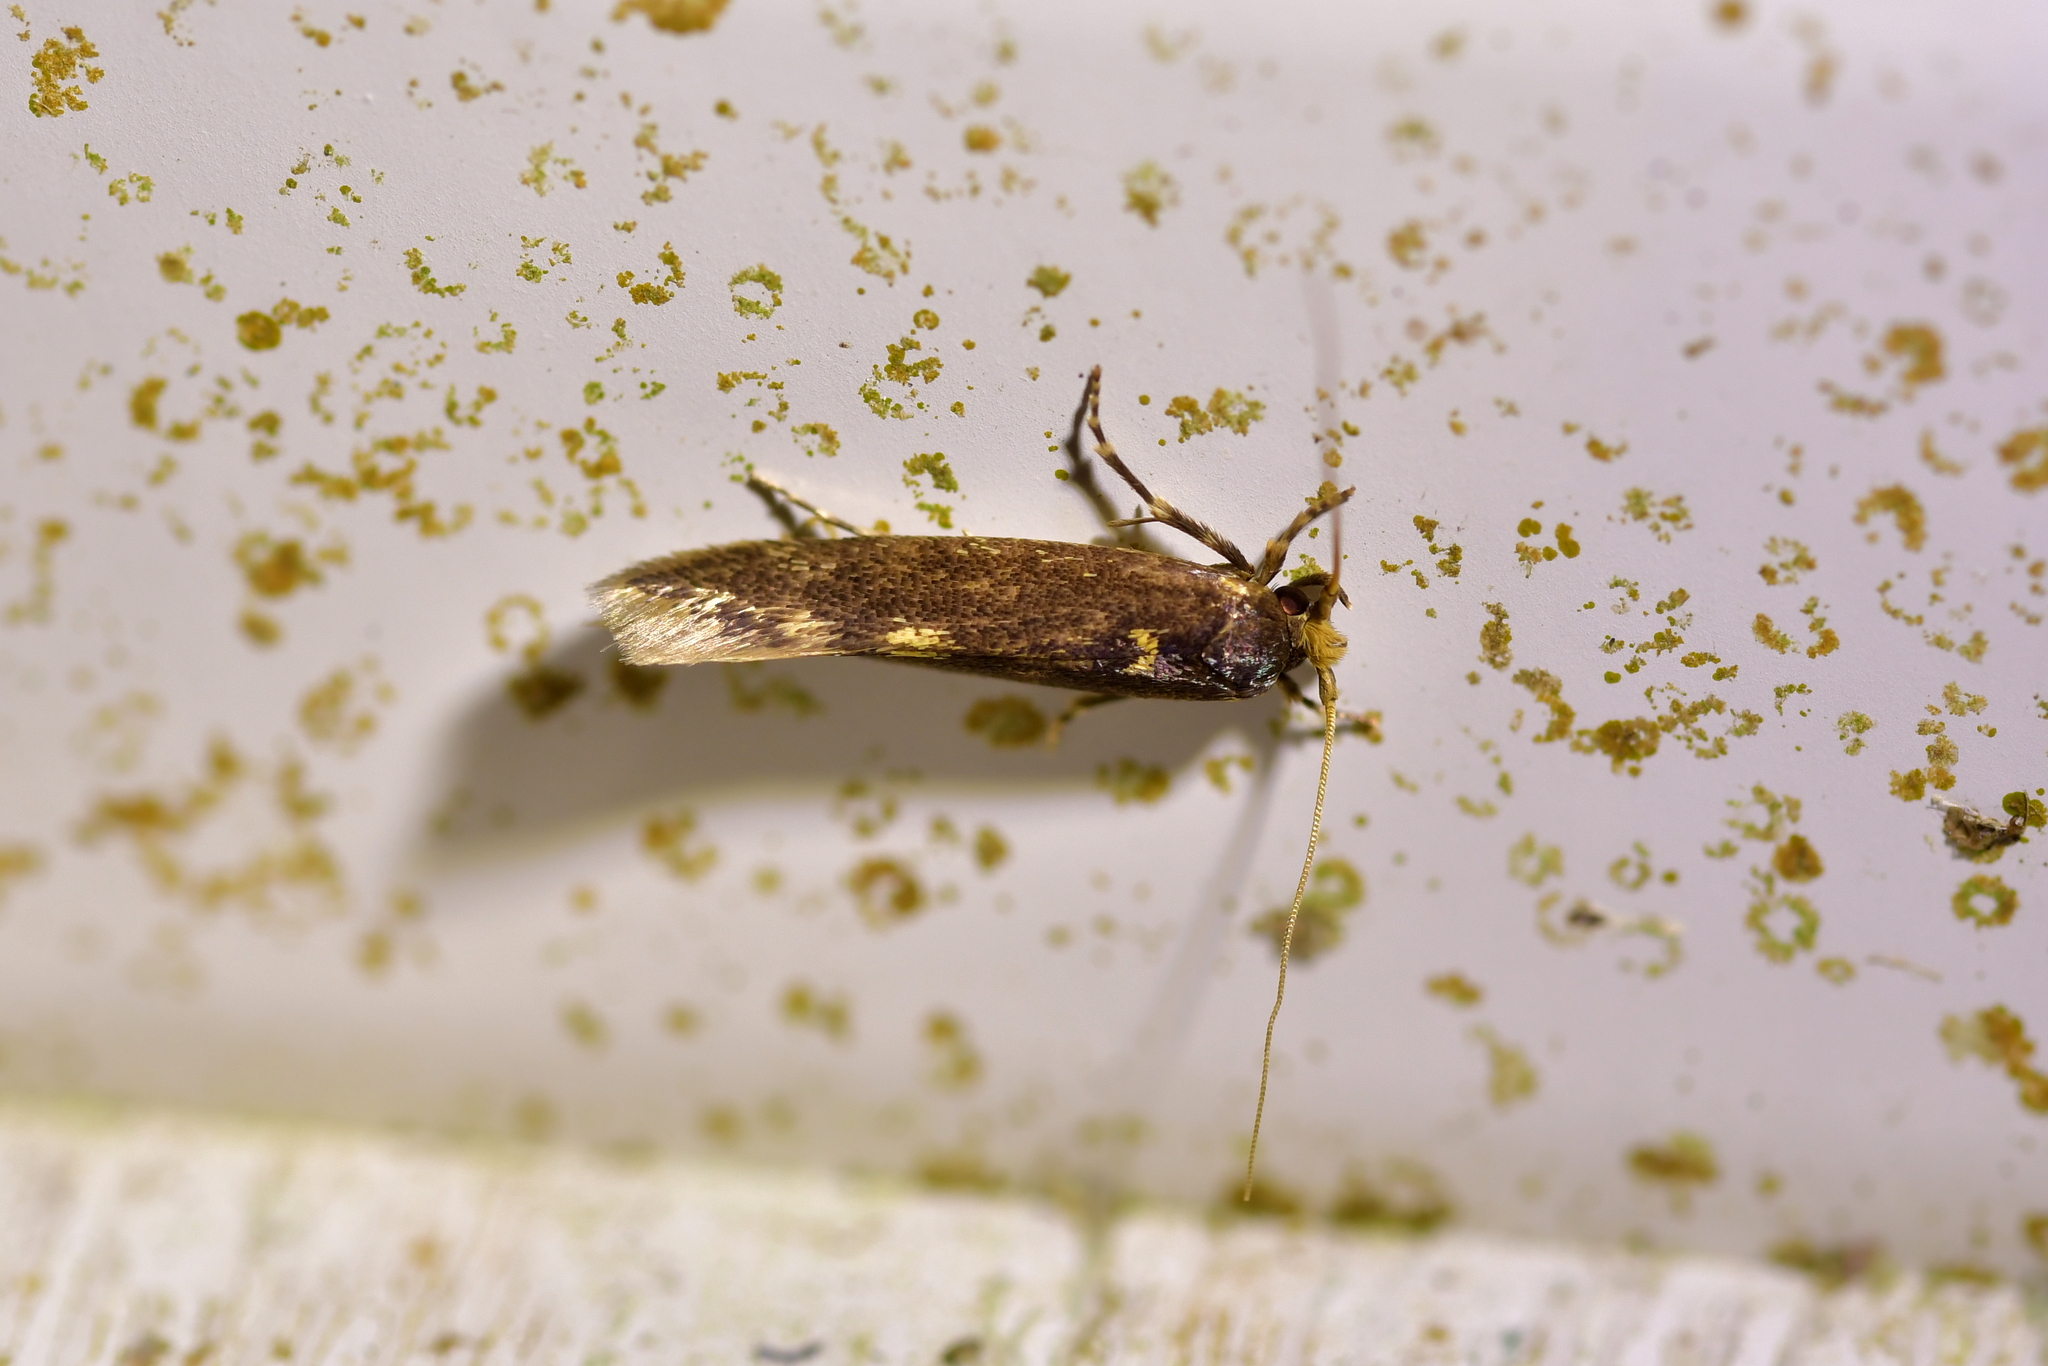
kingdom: Animalia
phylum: Arthropoda
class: Insecta
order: Lepidoptera
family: Tineidae
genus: Opogona
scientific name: Opogona omoscopa
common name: Moth
